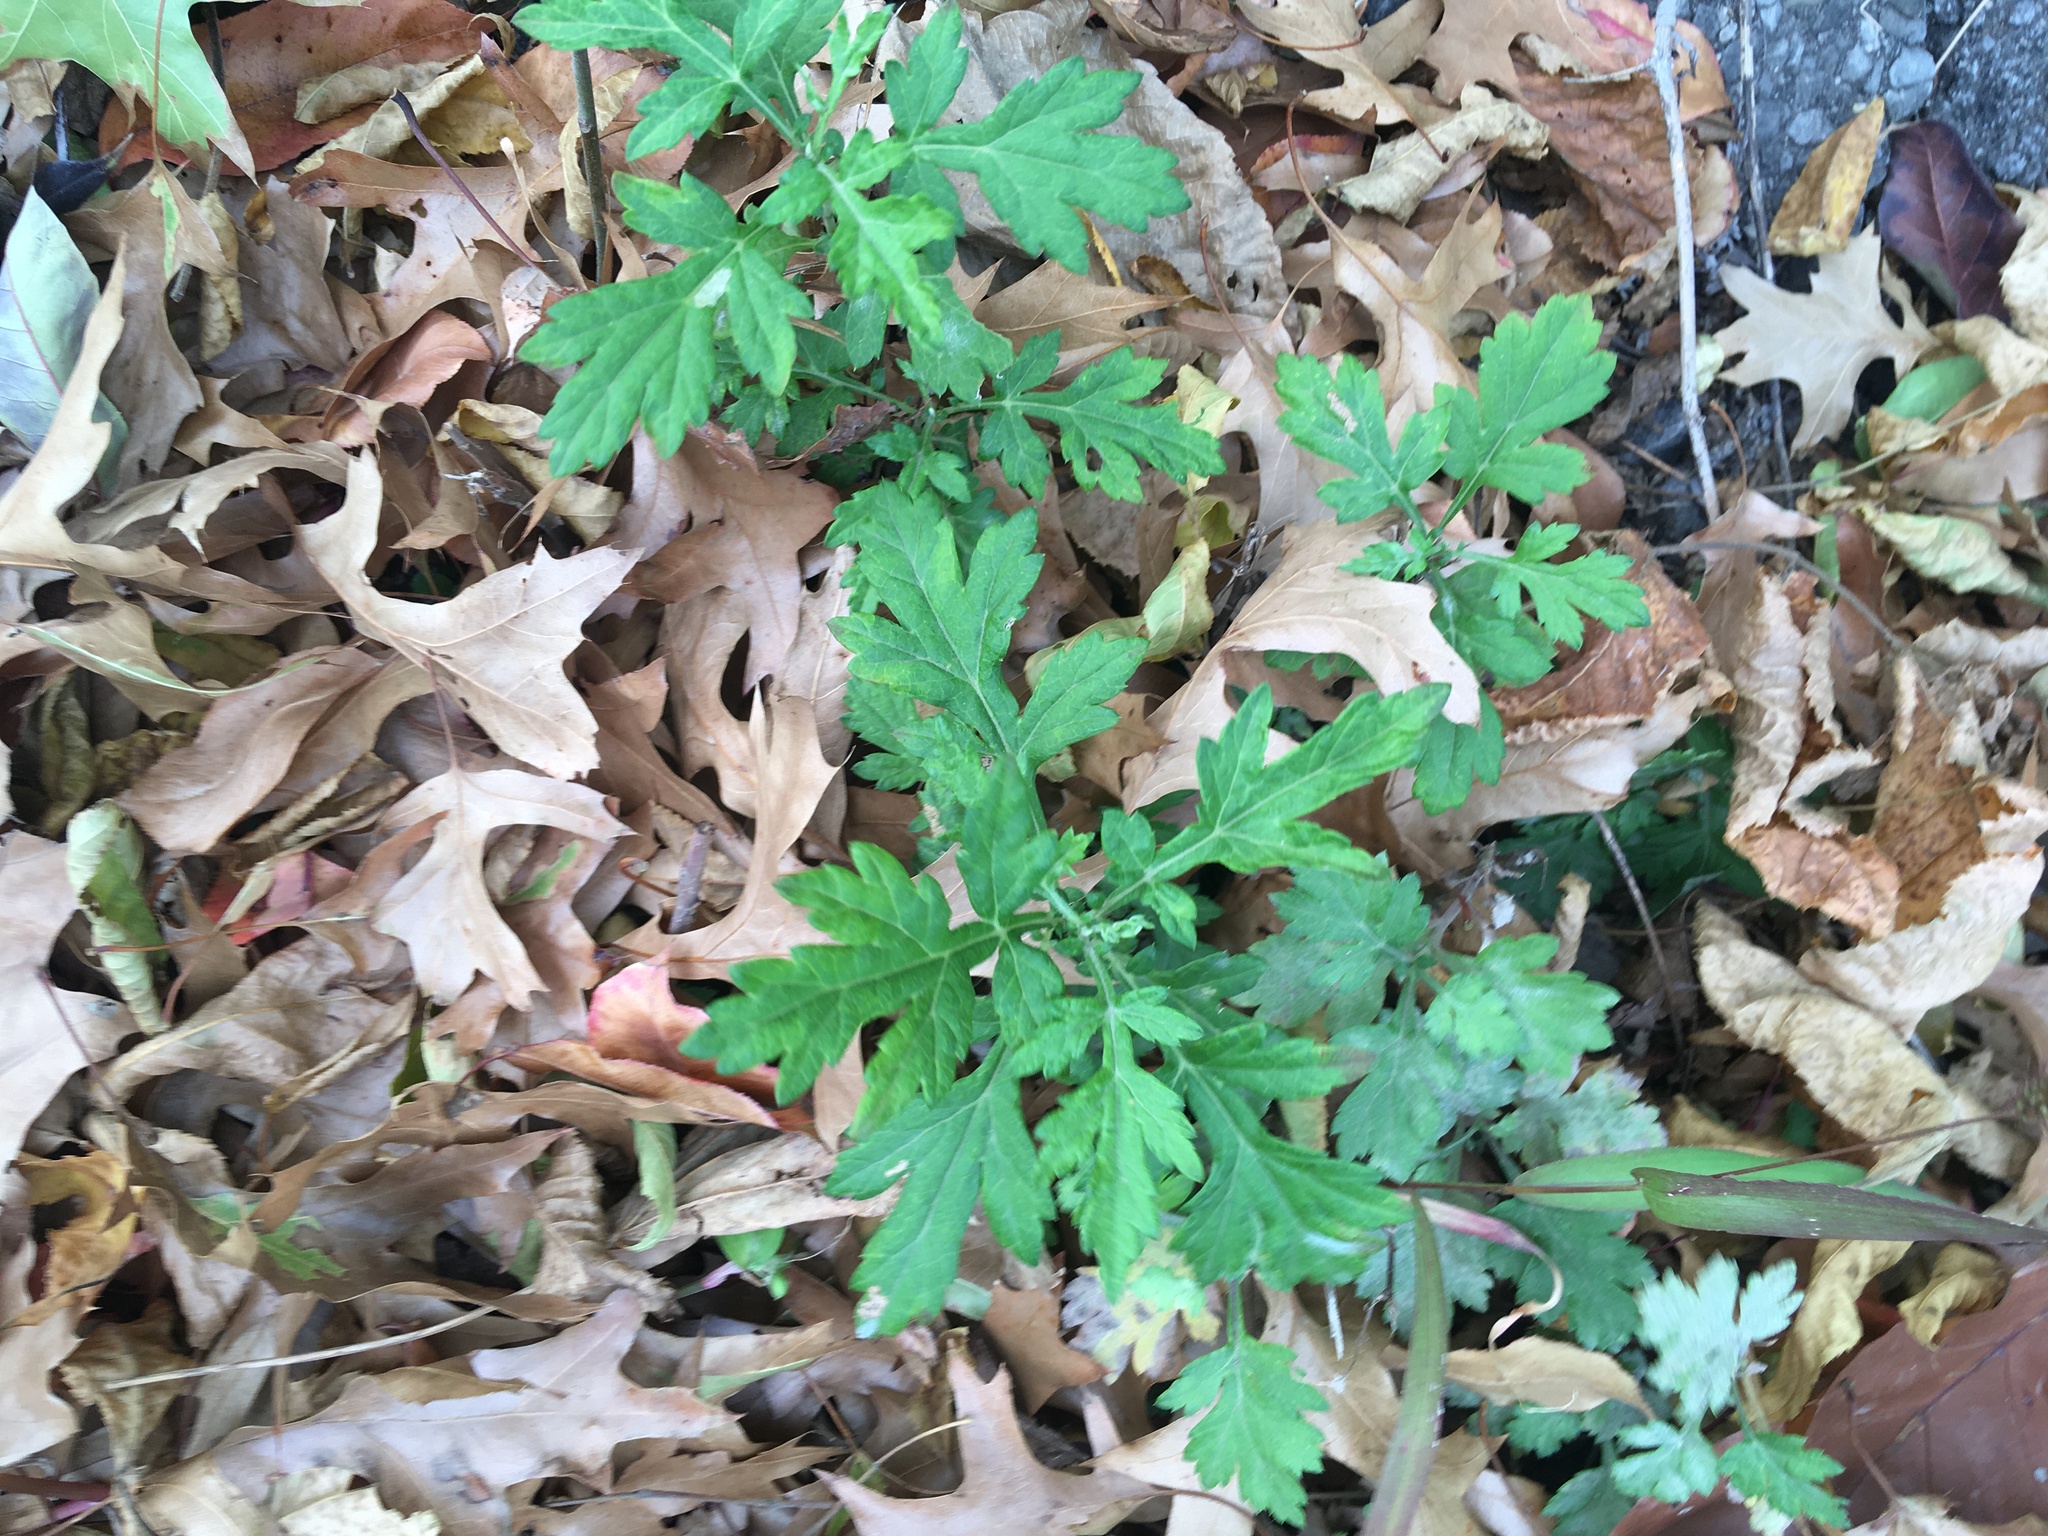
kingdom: Plantae
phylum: Tracheophyta
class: Magnoliopsida
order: Asterales
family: Asteraceae
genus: Artemisia
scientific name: Artemisia vulgaris
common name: Mugwort
